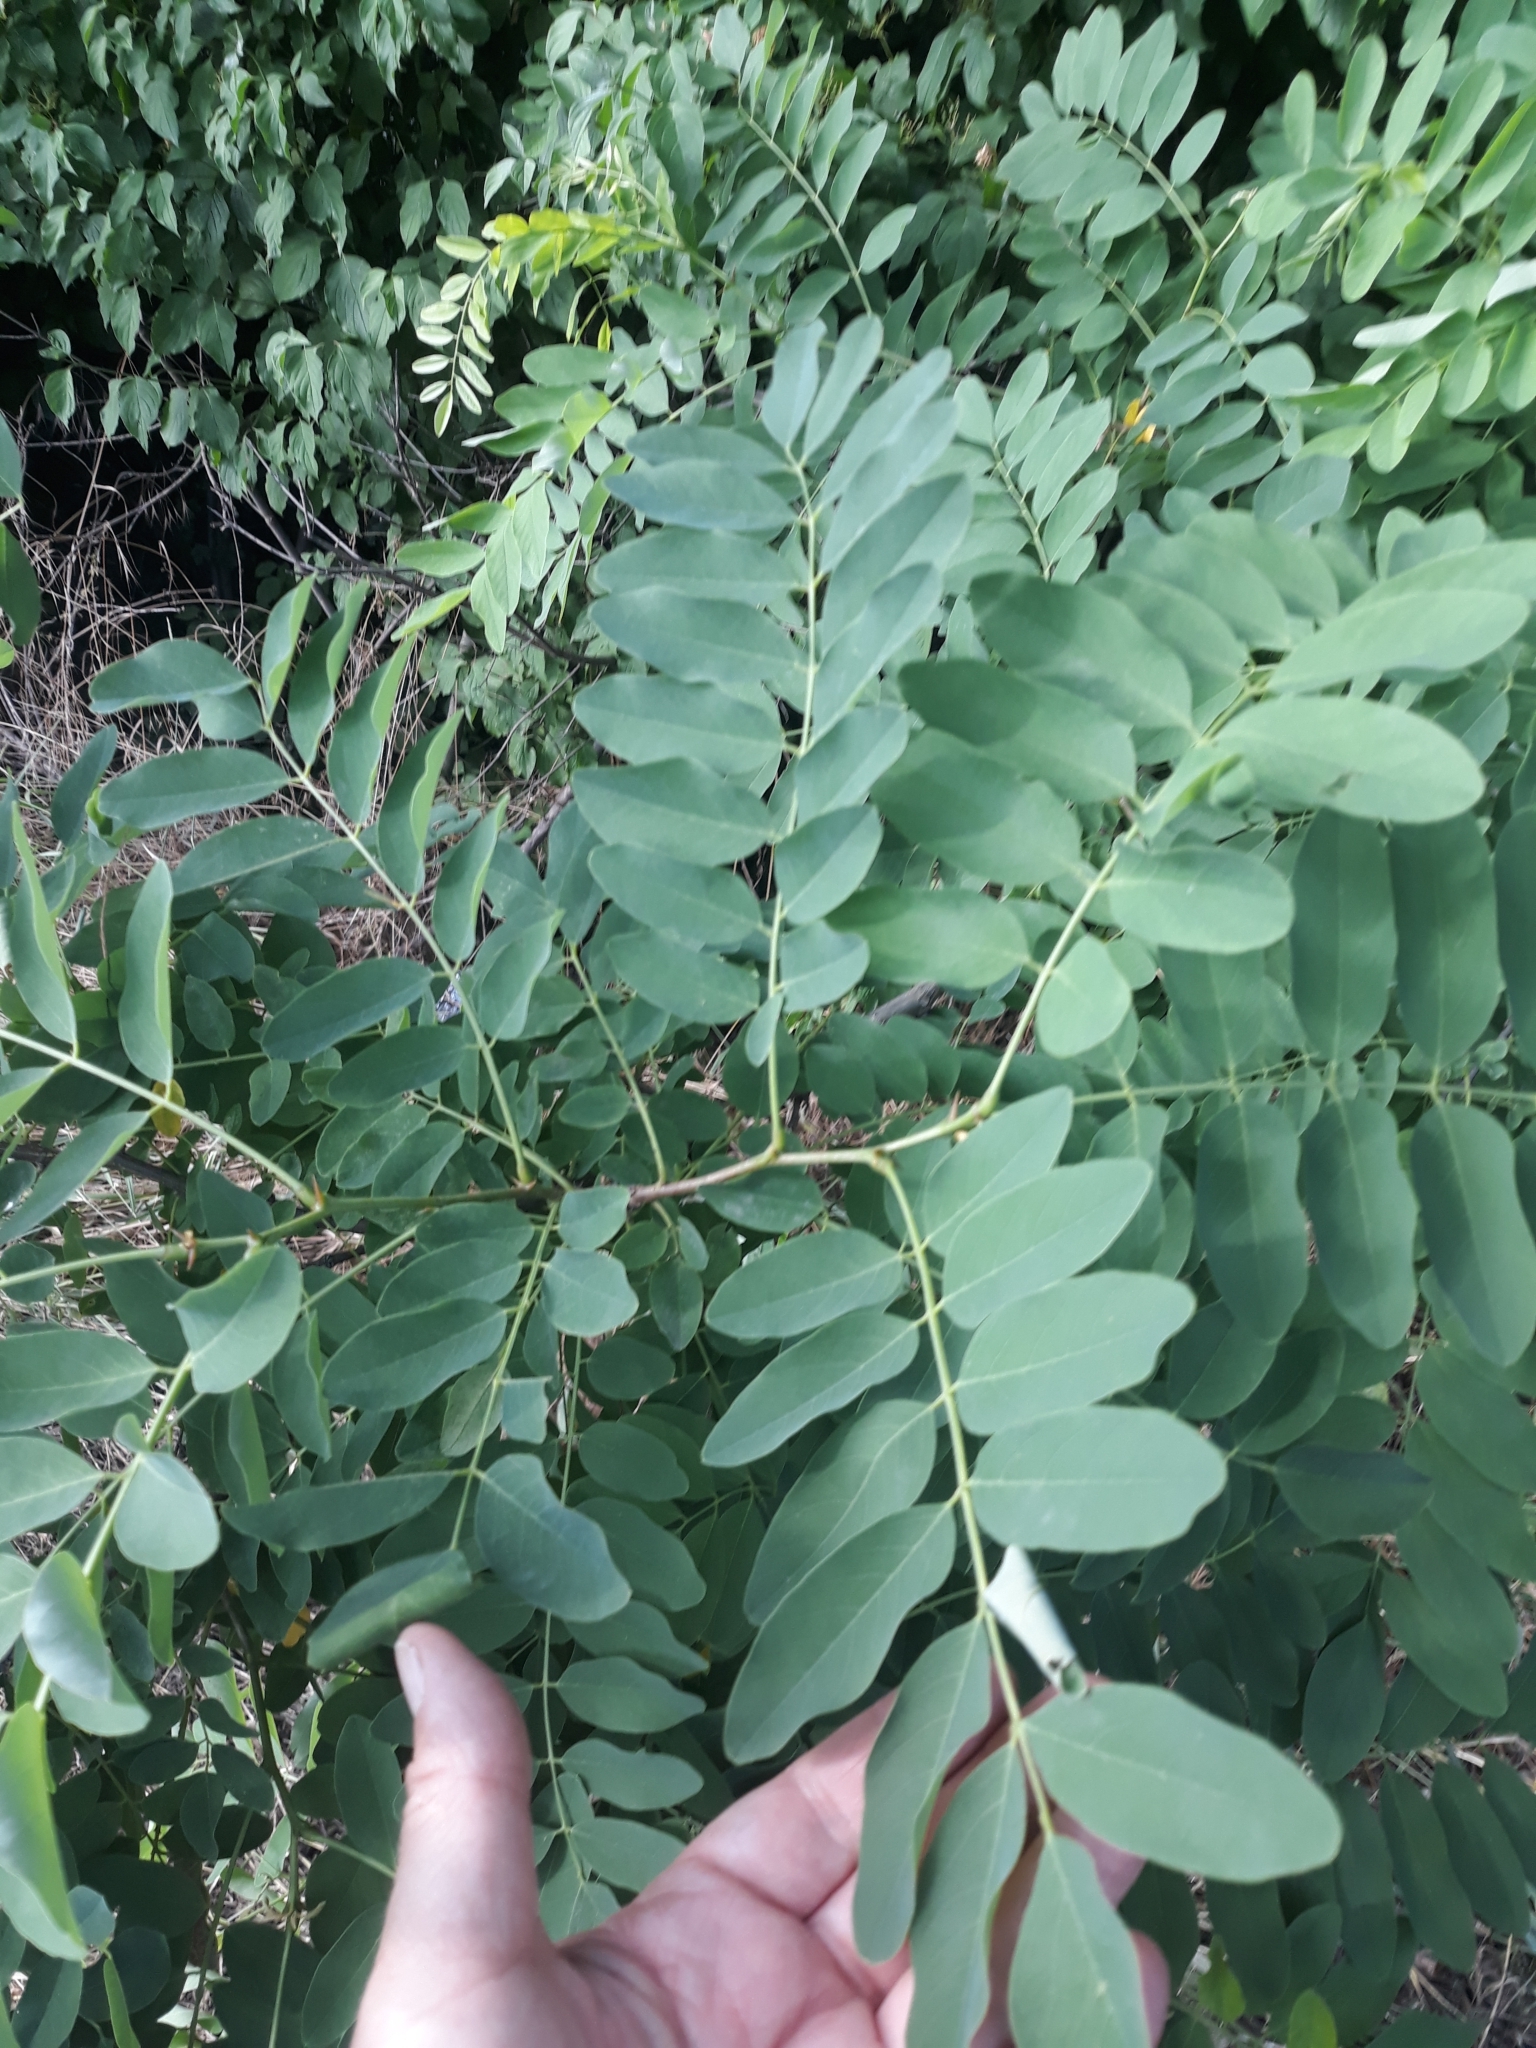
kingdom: Plantae
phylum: Tracheophyta
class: Magnoliopsida
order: Fabales
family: Fabaceae
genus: Robinia
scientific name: Robinia pseudoacacia
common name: Black locust
